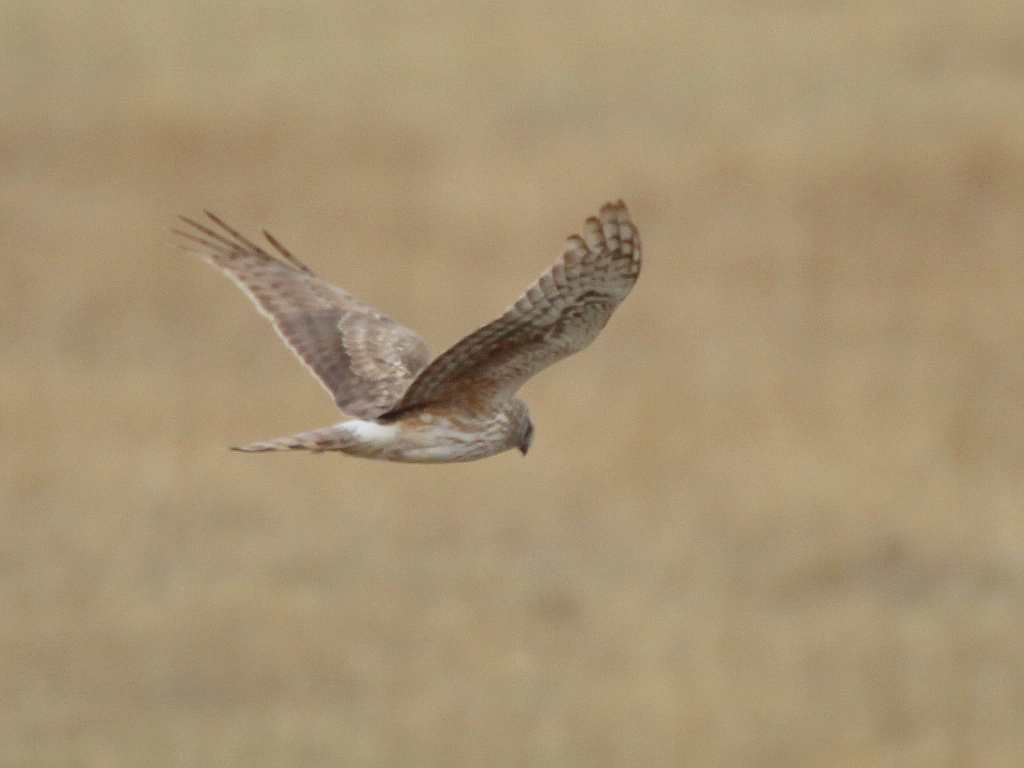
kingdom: Animalia
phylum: Chordata
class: Aves
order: Accipitriformes
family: Accipitridae
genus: Circus
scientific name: Circus cyaneus
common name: Hen harrier
